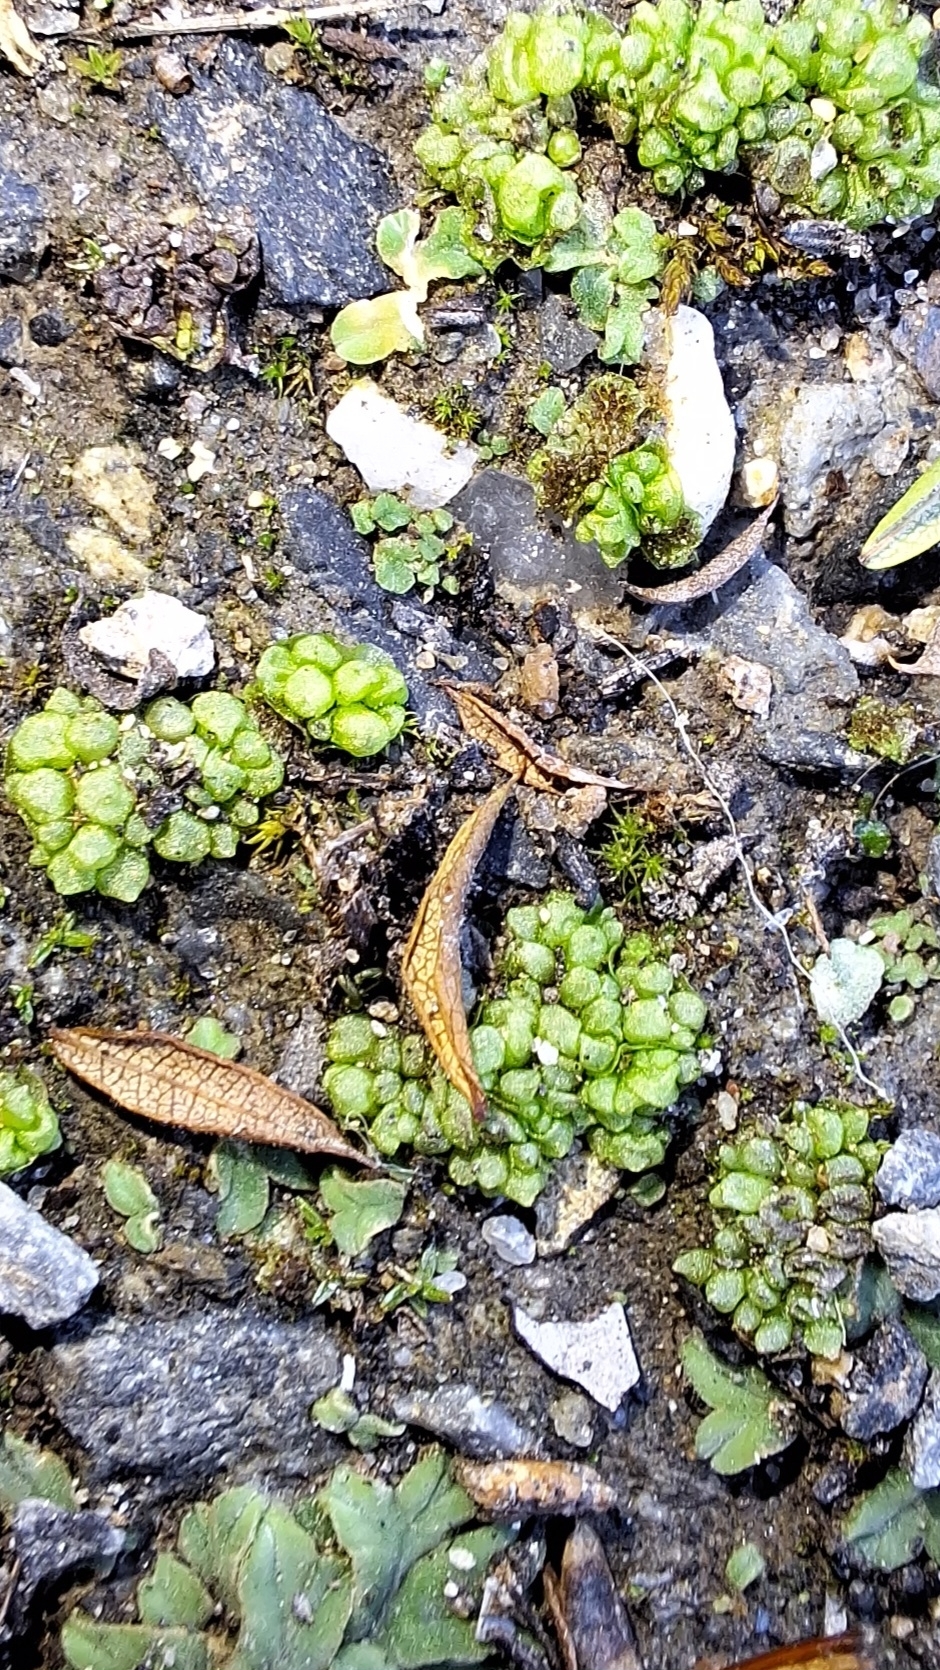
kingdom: Plantae
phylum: Marchantiophyta
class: Marchantiopsida
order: Sphaerocarpales
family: Sphaerocarpaceae
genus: Sphaerocarpos
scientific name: Sphaerocarpos texanus
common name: Texas balloonwort
